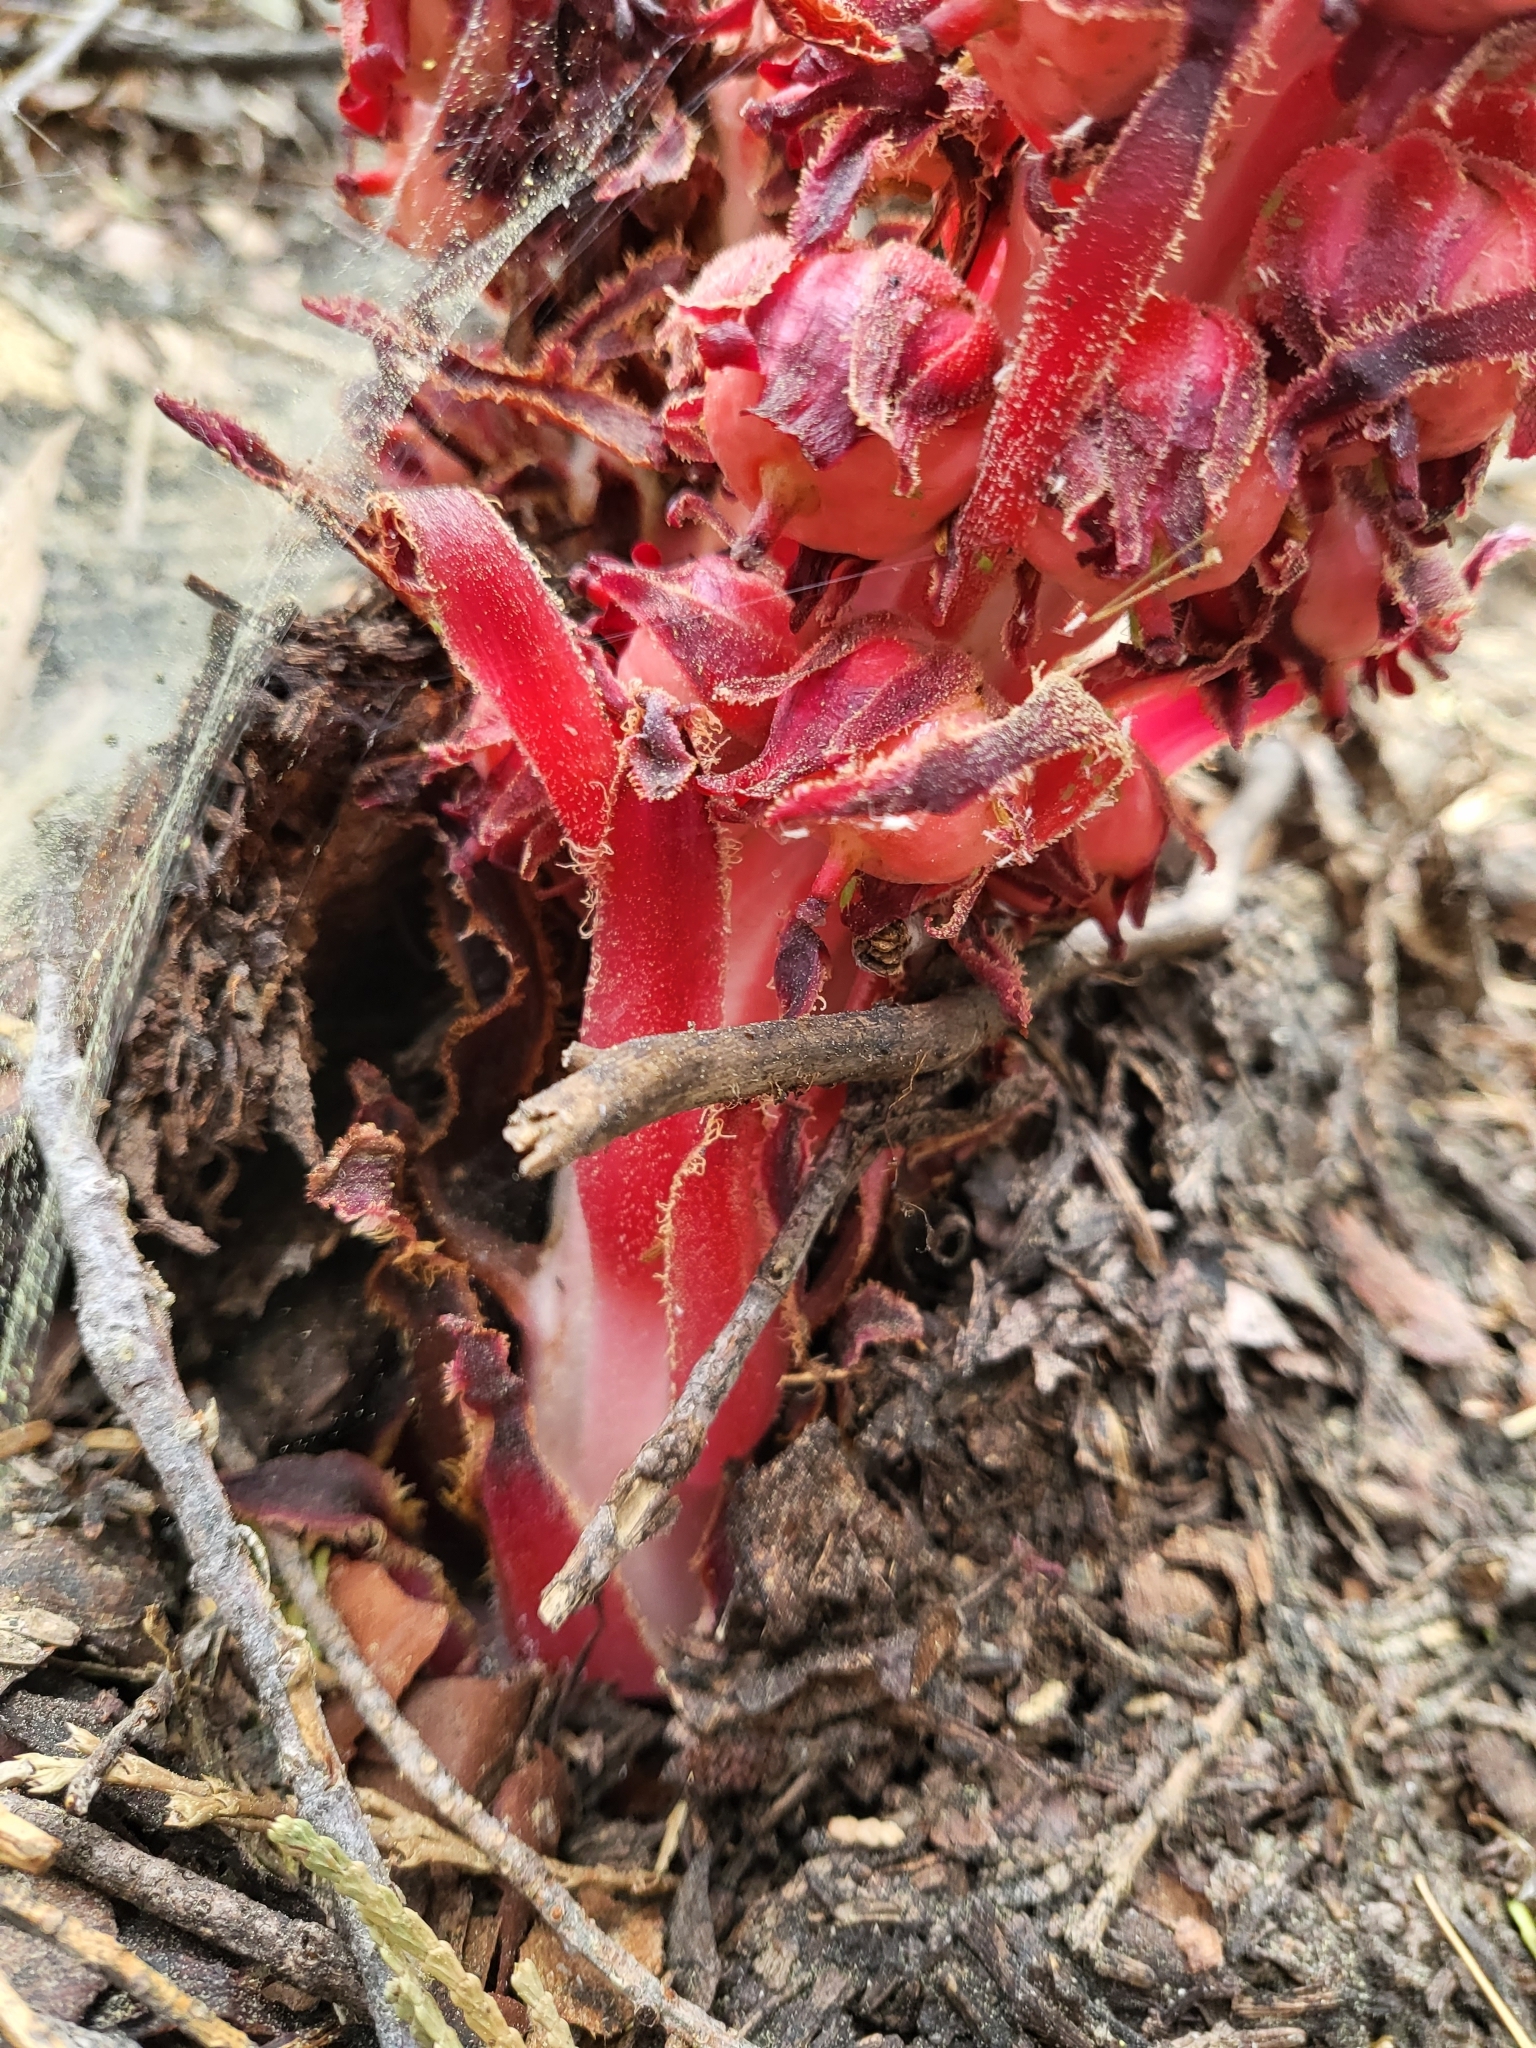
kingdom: Plantae
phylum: Tracheophyta
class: Magnoliopsida
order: Ericales
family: Ericaceae
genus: Sarcodes
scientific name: Sarcodes sanguinea
